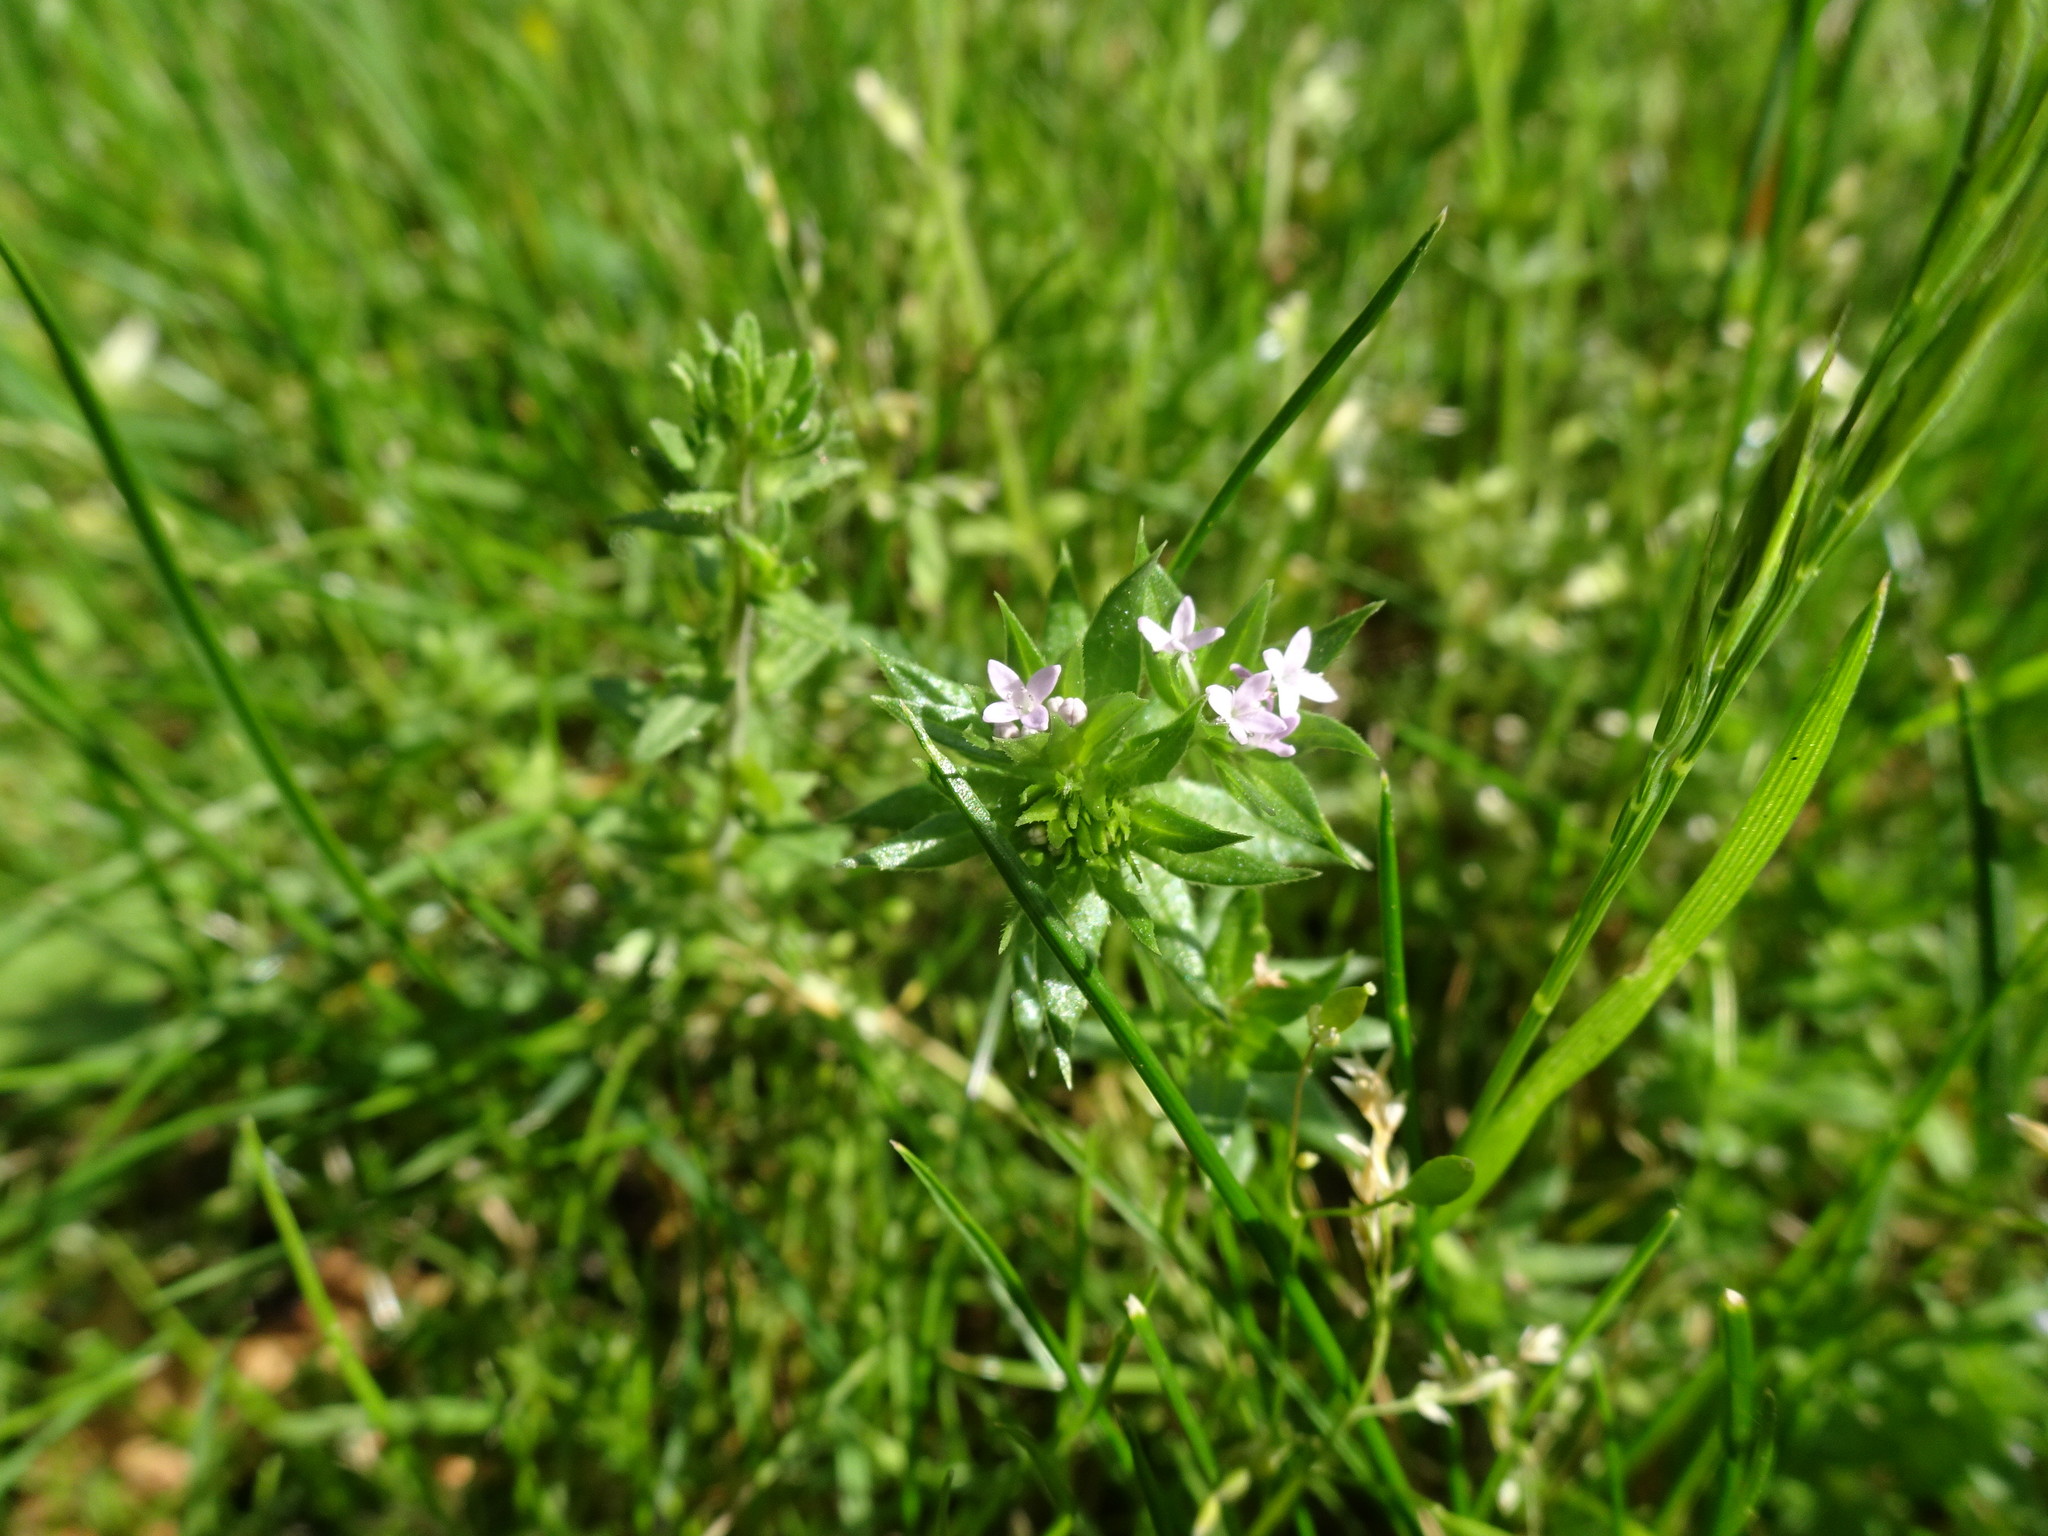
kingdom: Plantae
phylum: Tracheophyta
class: Magnoliopsida
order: Gentianales
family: Rubiaceae
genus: Sherardia
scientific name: Sherardia arvensis
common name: Field madder
